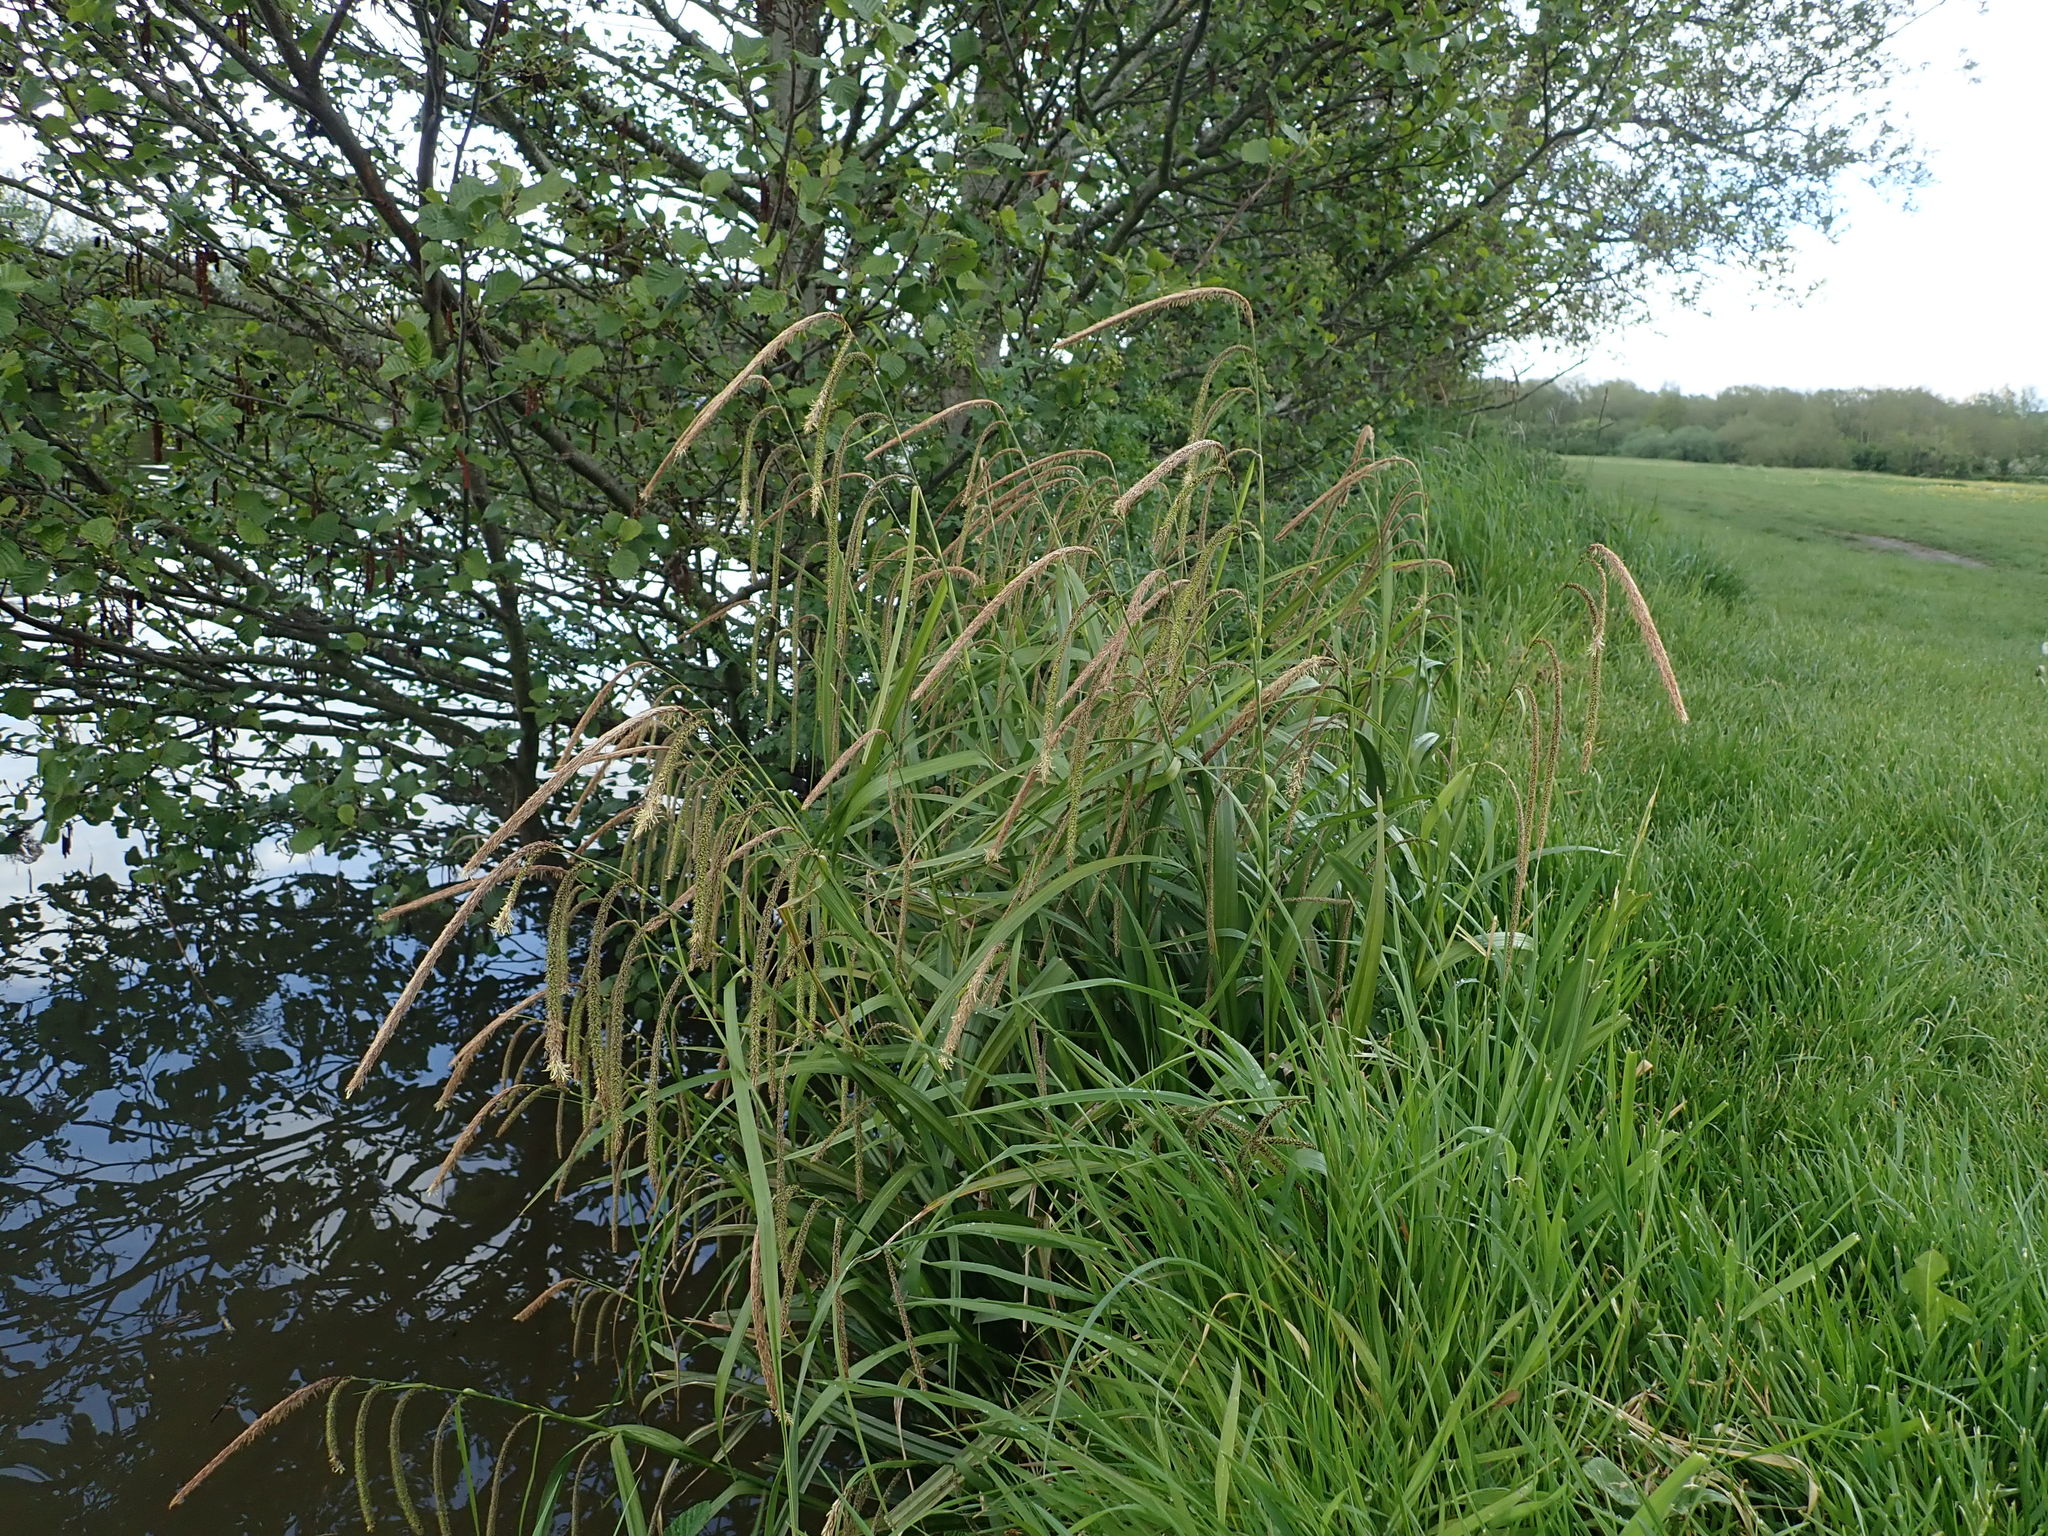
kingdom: Plantae
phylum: Tracheophyta
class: Liliopsida
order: Poales
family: Cyperaceae
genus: Carex
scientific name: Carex pendula
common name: Pendulous sedge
